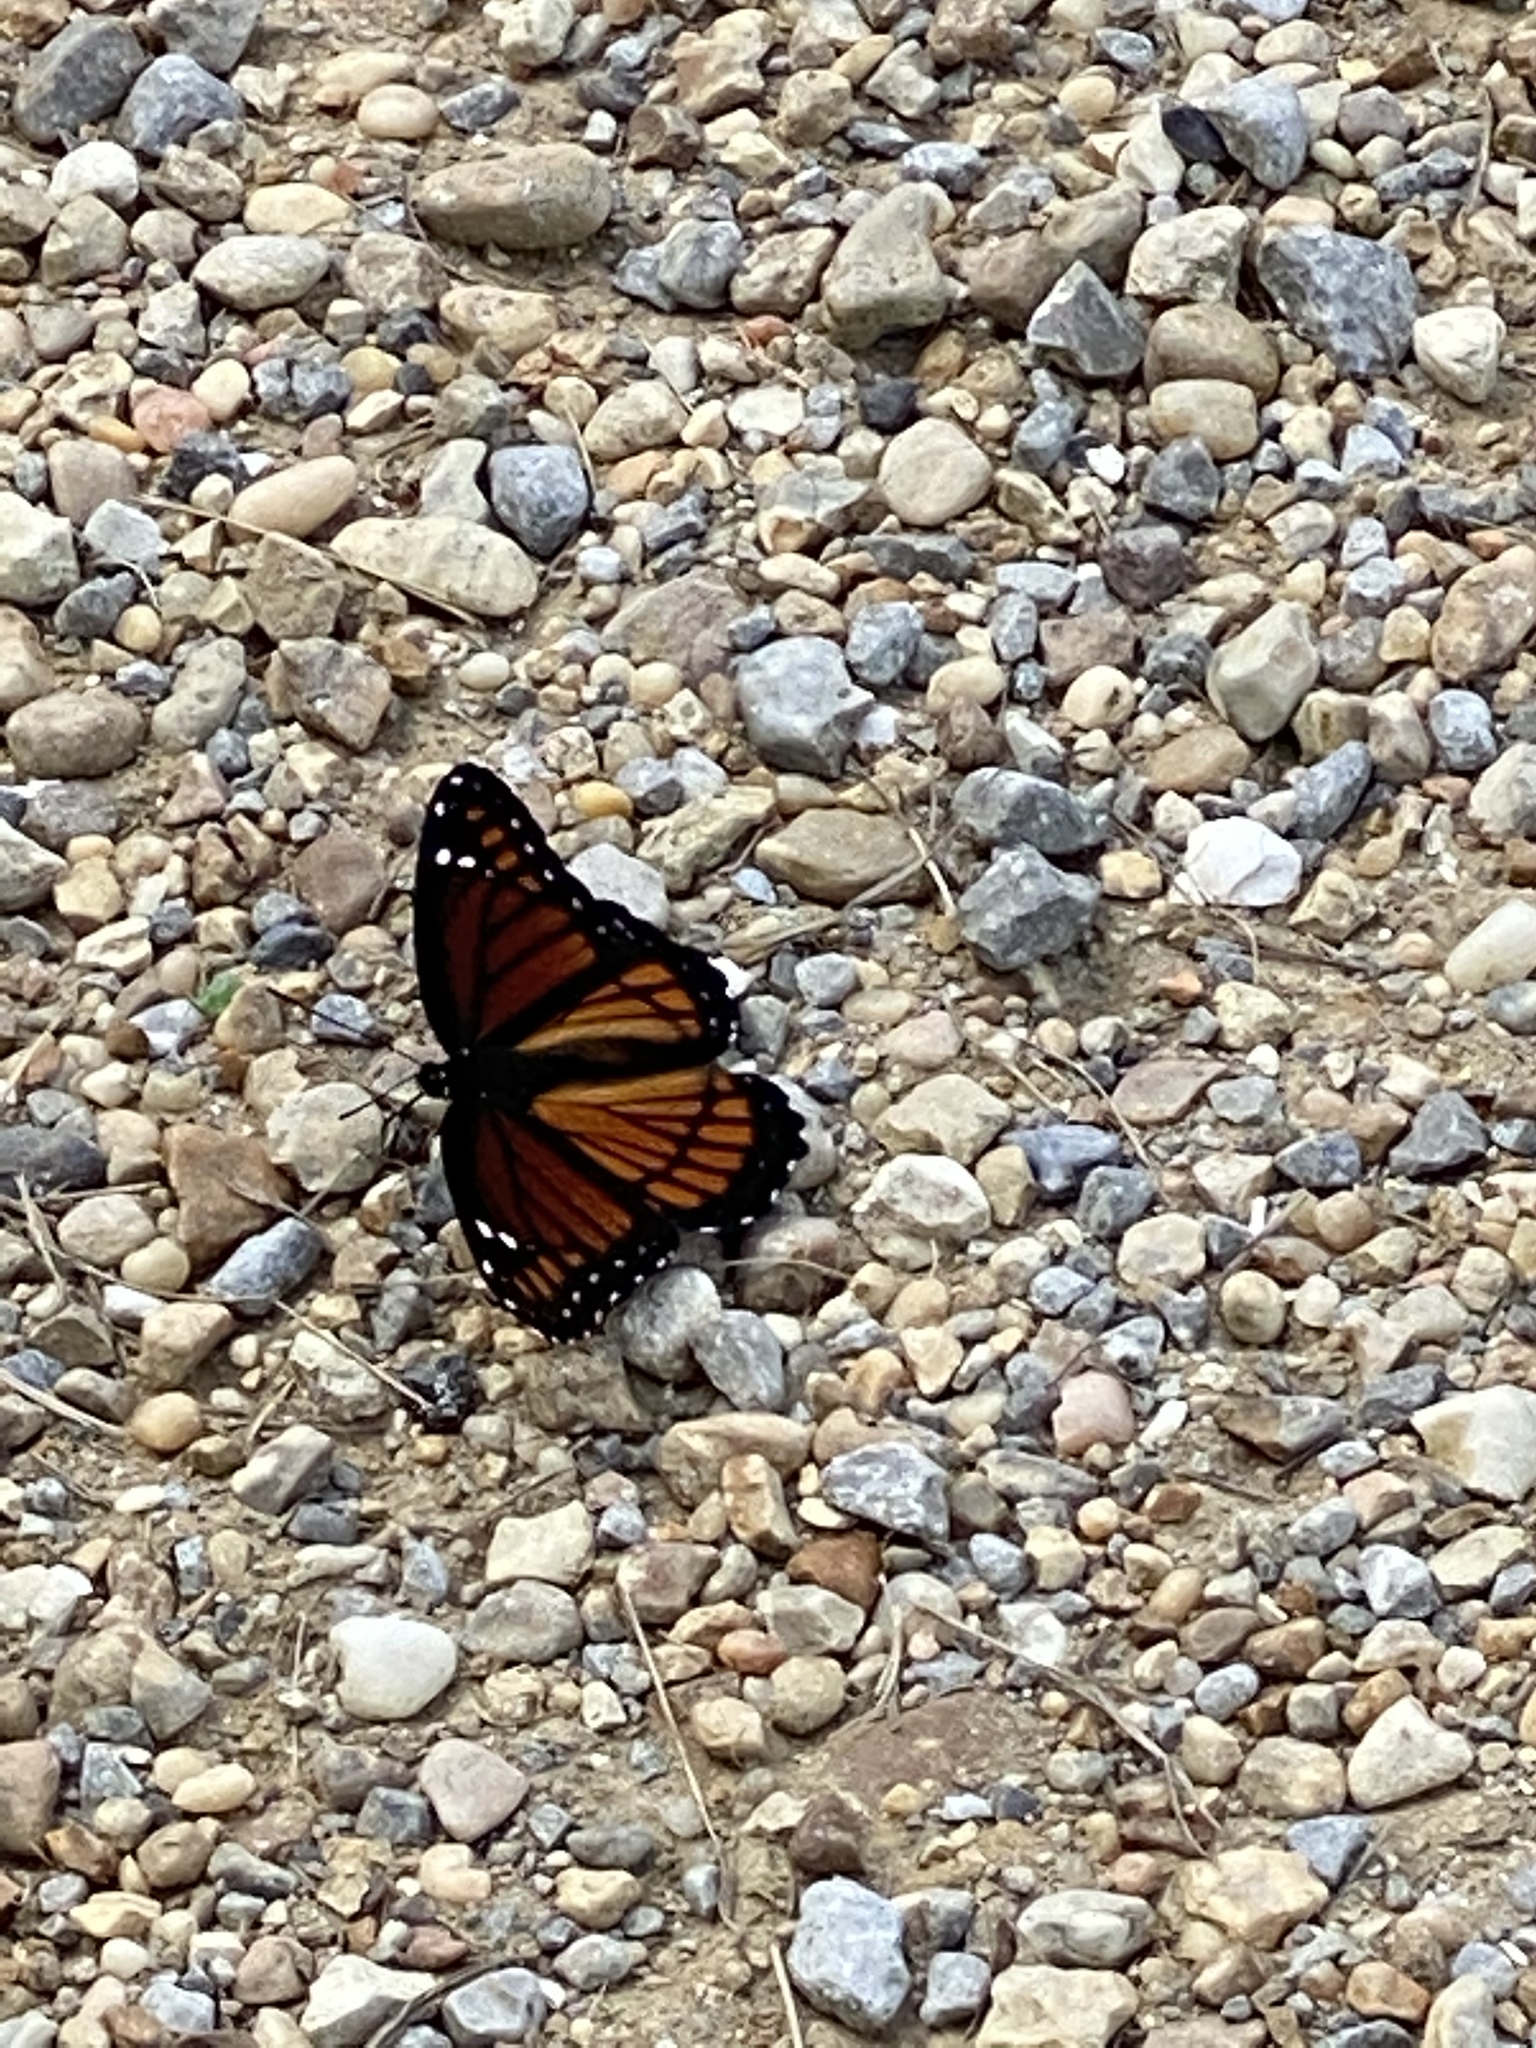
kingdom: Animalia
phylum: Arthropoda
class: Insecta
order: Lepidoptera
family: Nymphalidae
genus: Limenitis
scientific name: Limenitis archippus
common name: Viceroy
